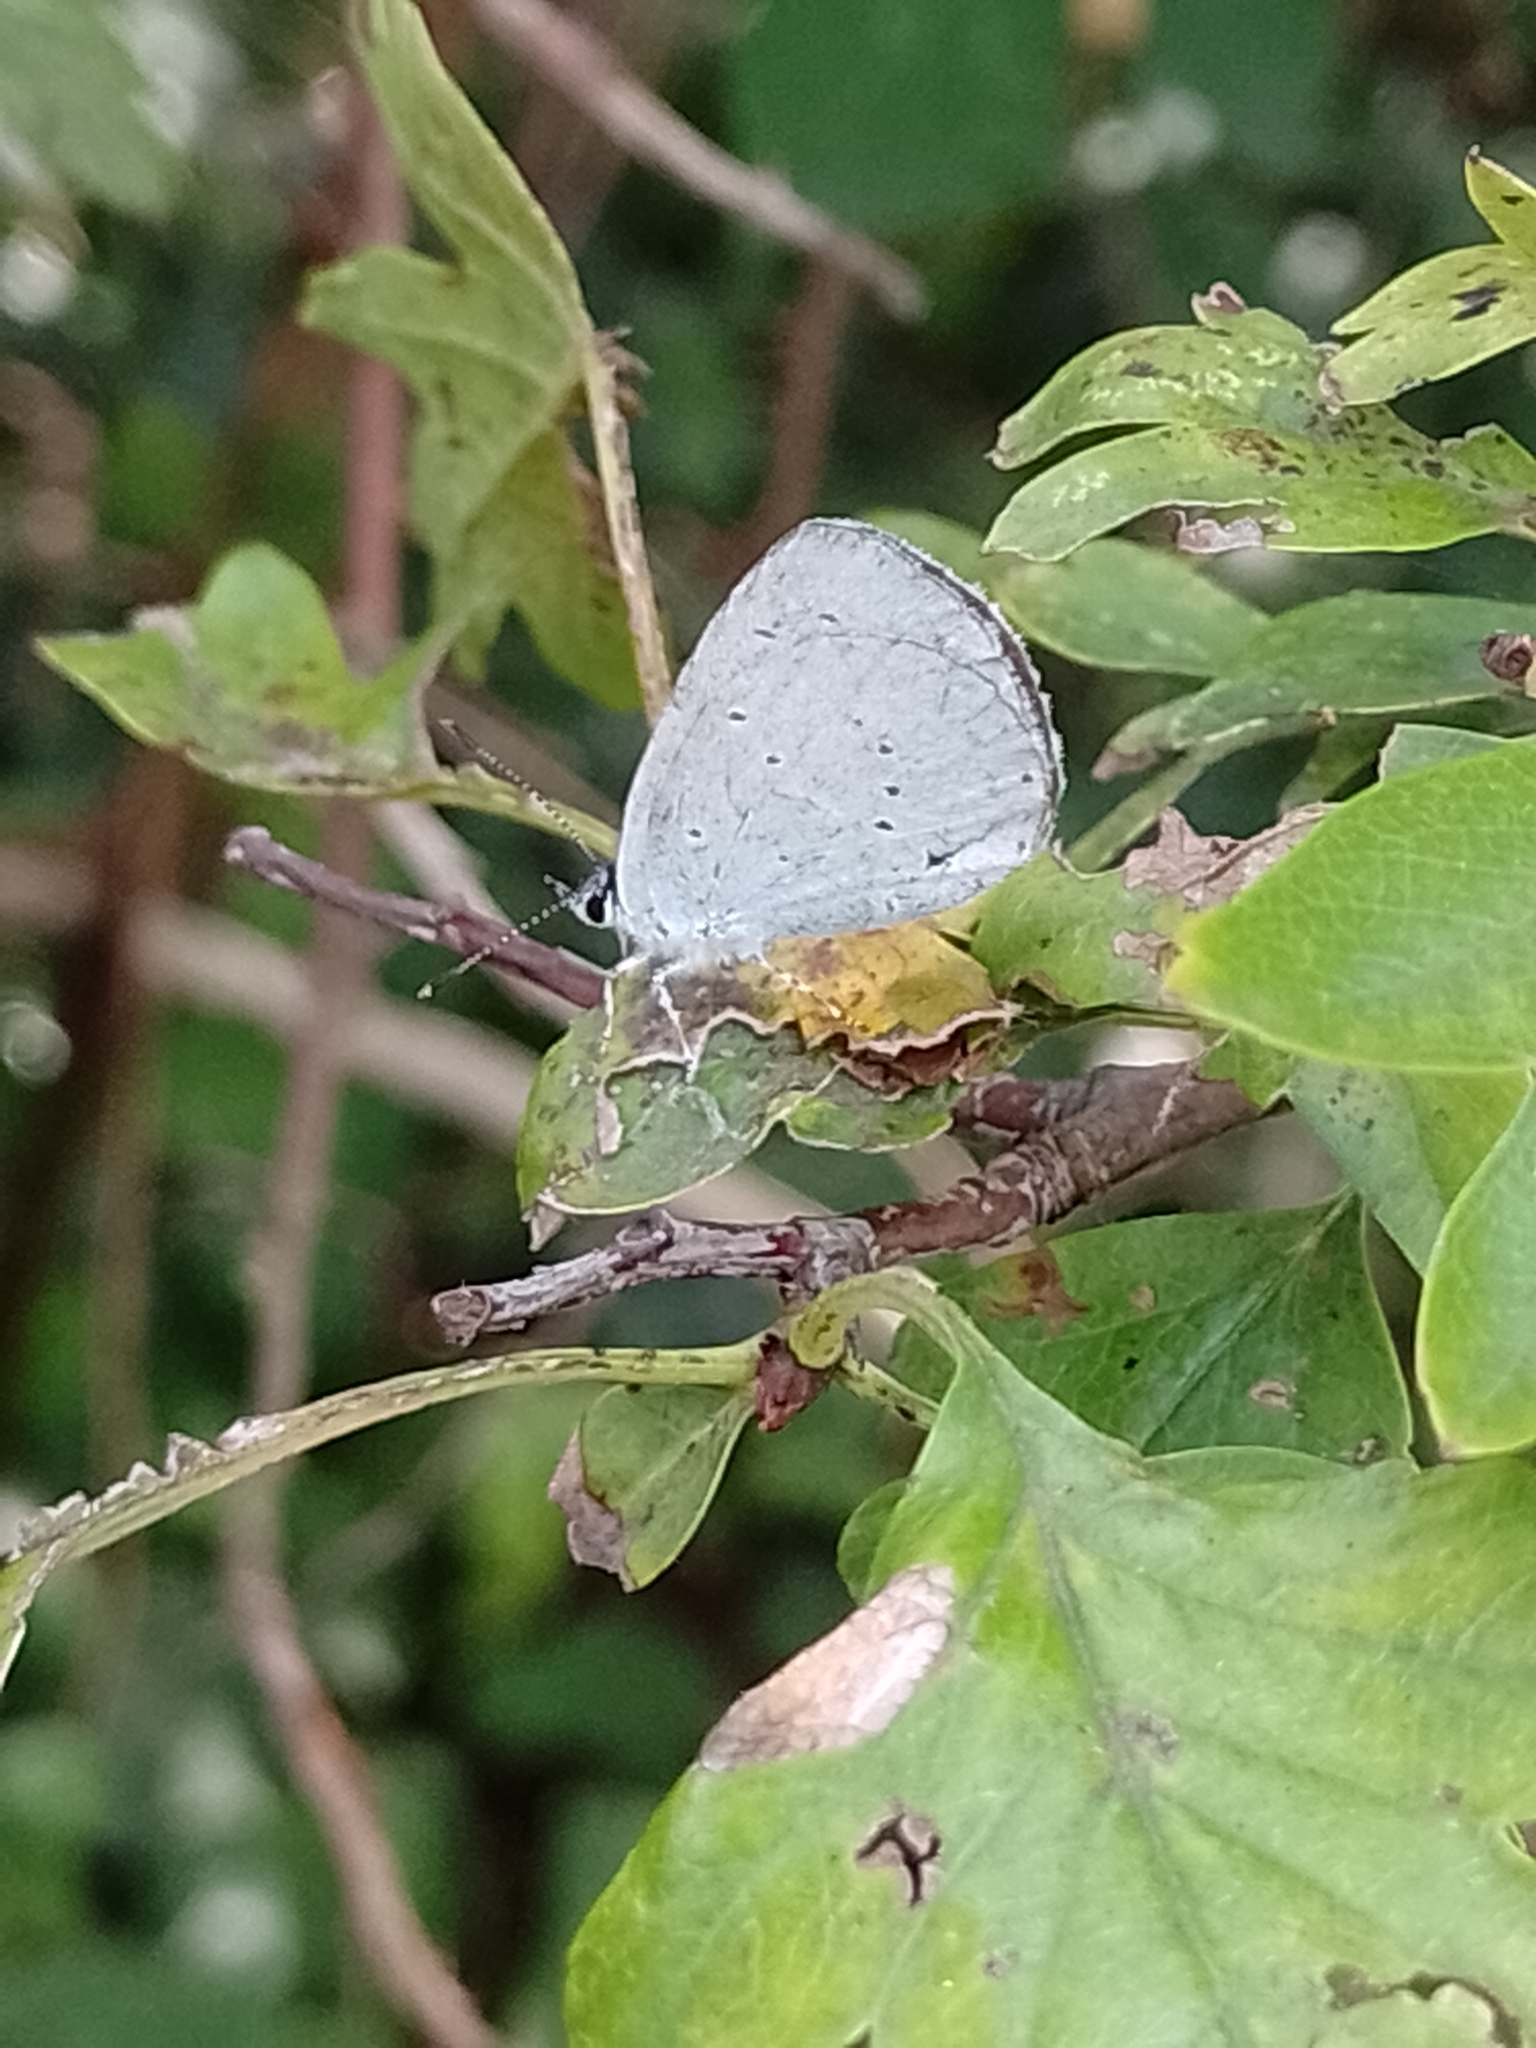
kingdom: Animalia
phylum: Arthropoda
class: Insecta
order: Lepidoptera
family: Lycaenidae
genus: Celastrina
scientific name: Celastrina argiolus
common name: Holly blue
